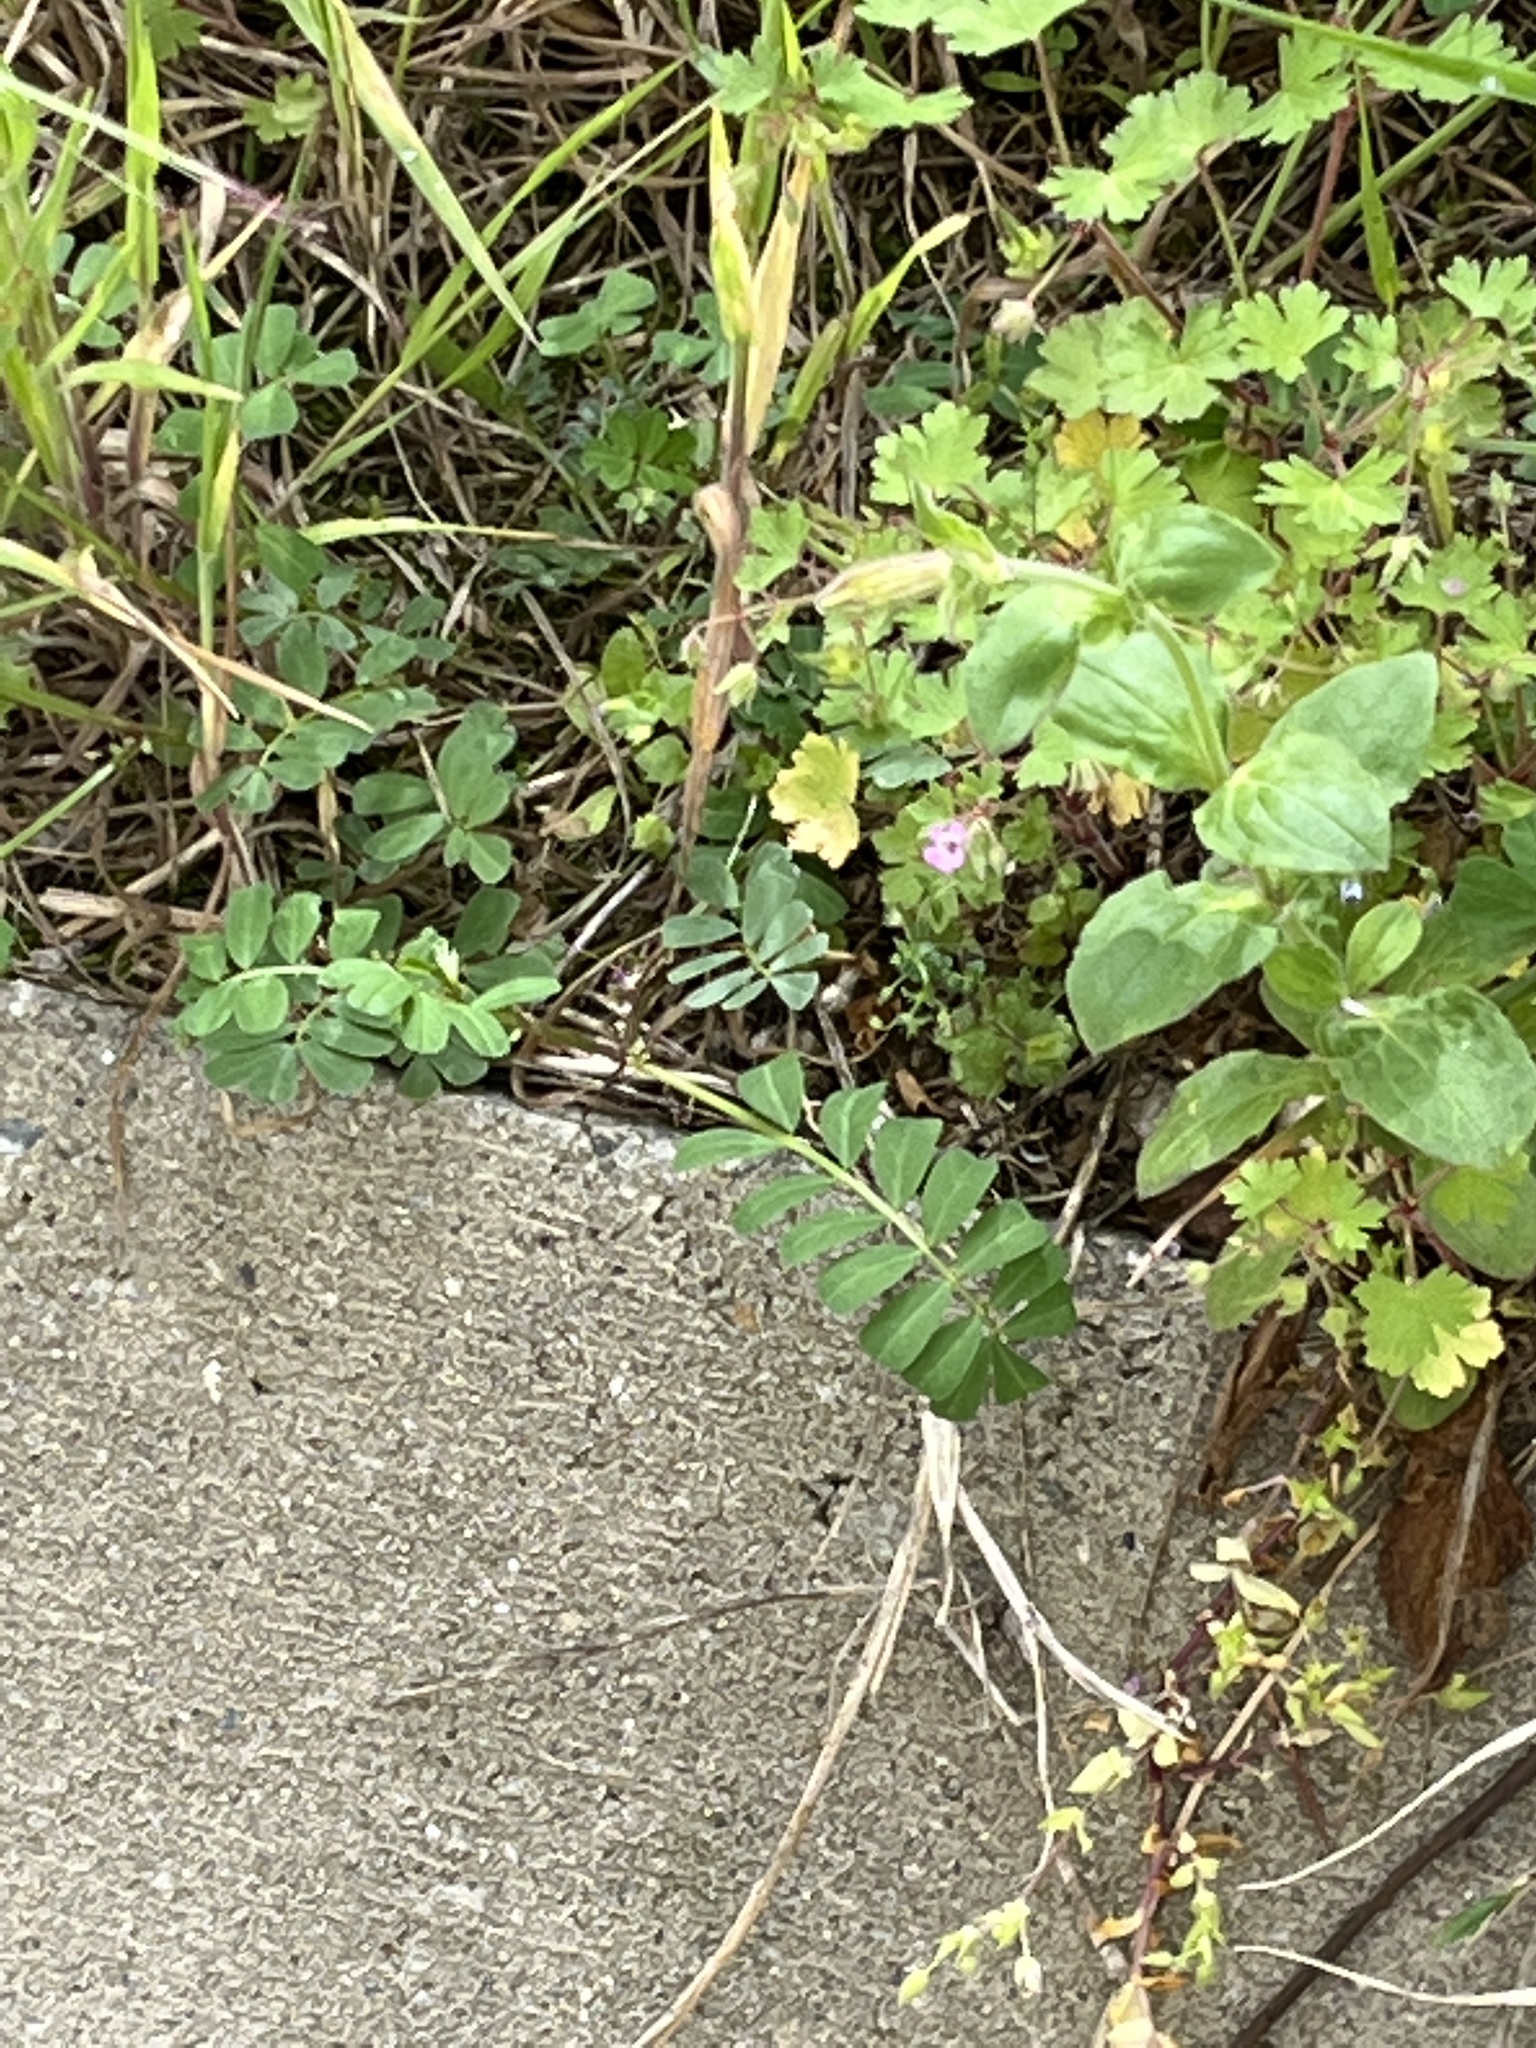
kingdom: Plantae
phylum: Tracheophyta
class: Magnoliopsida
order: Fabales
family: Fabaceae
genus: Coronilla
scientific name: Coronilla varia
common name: Crownvetch
